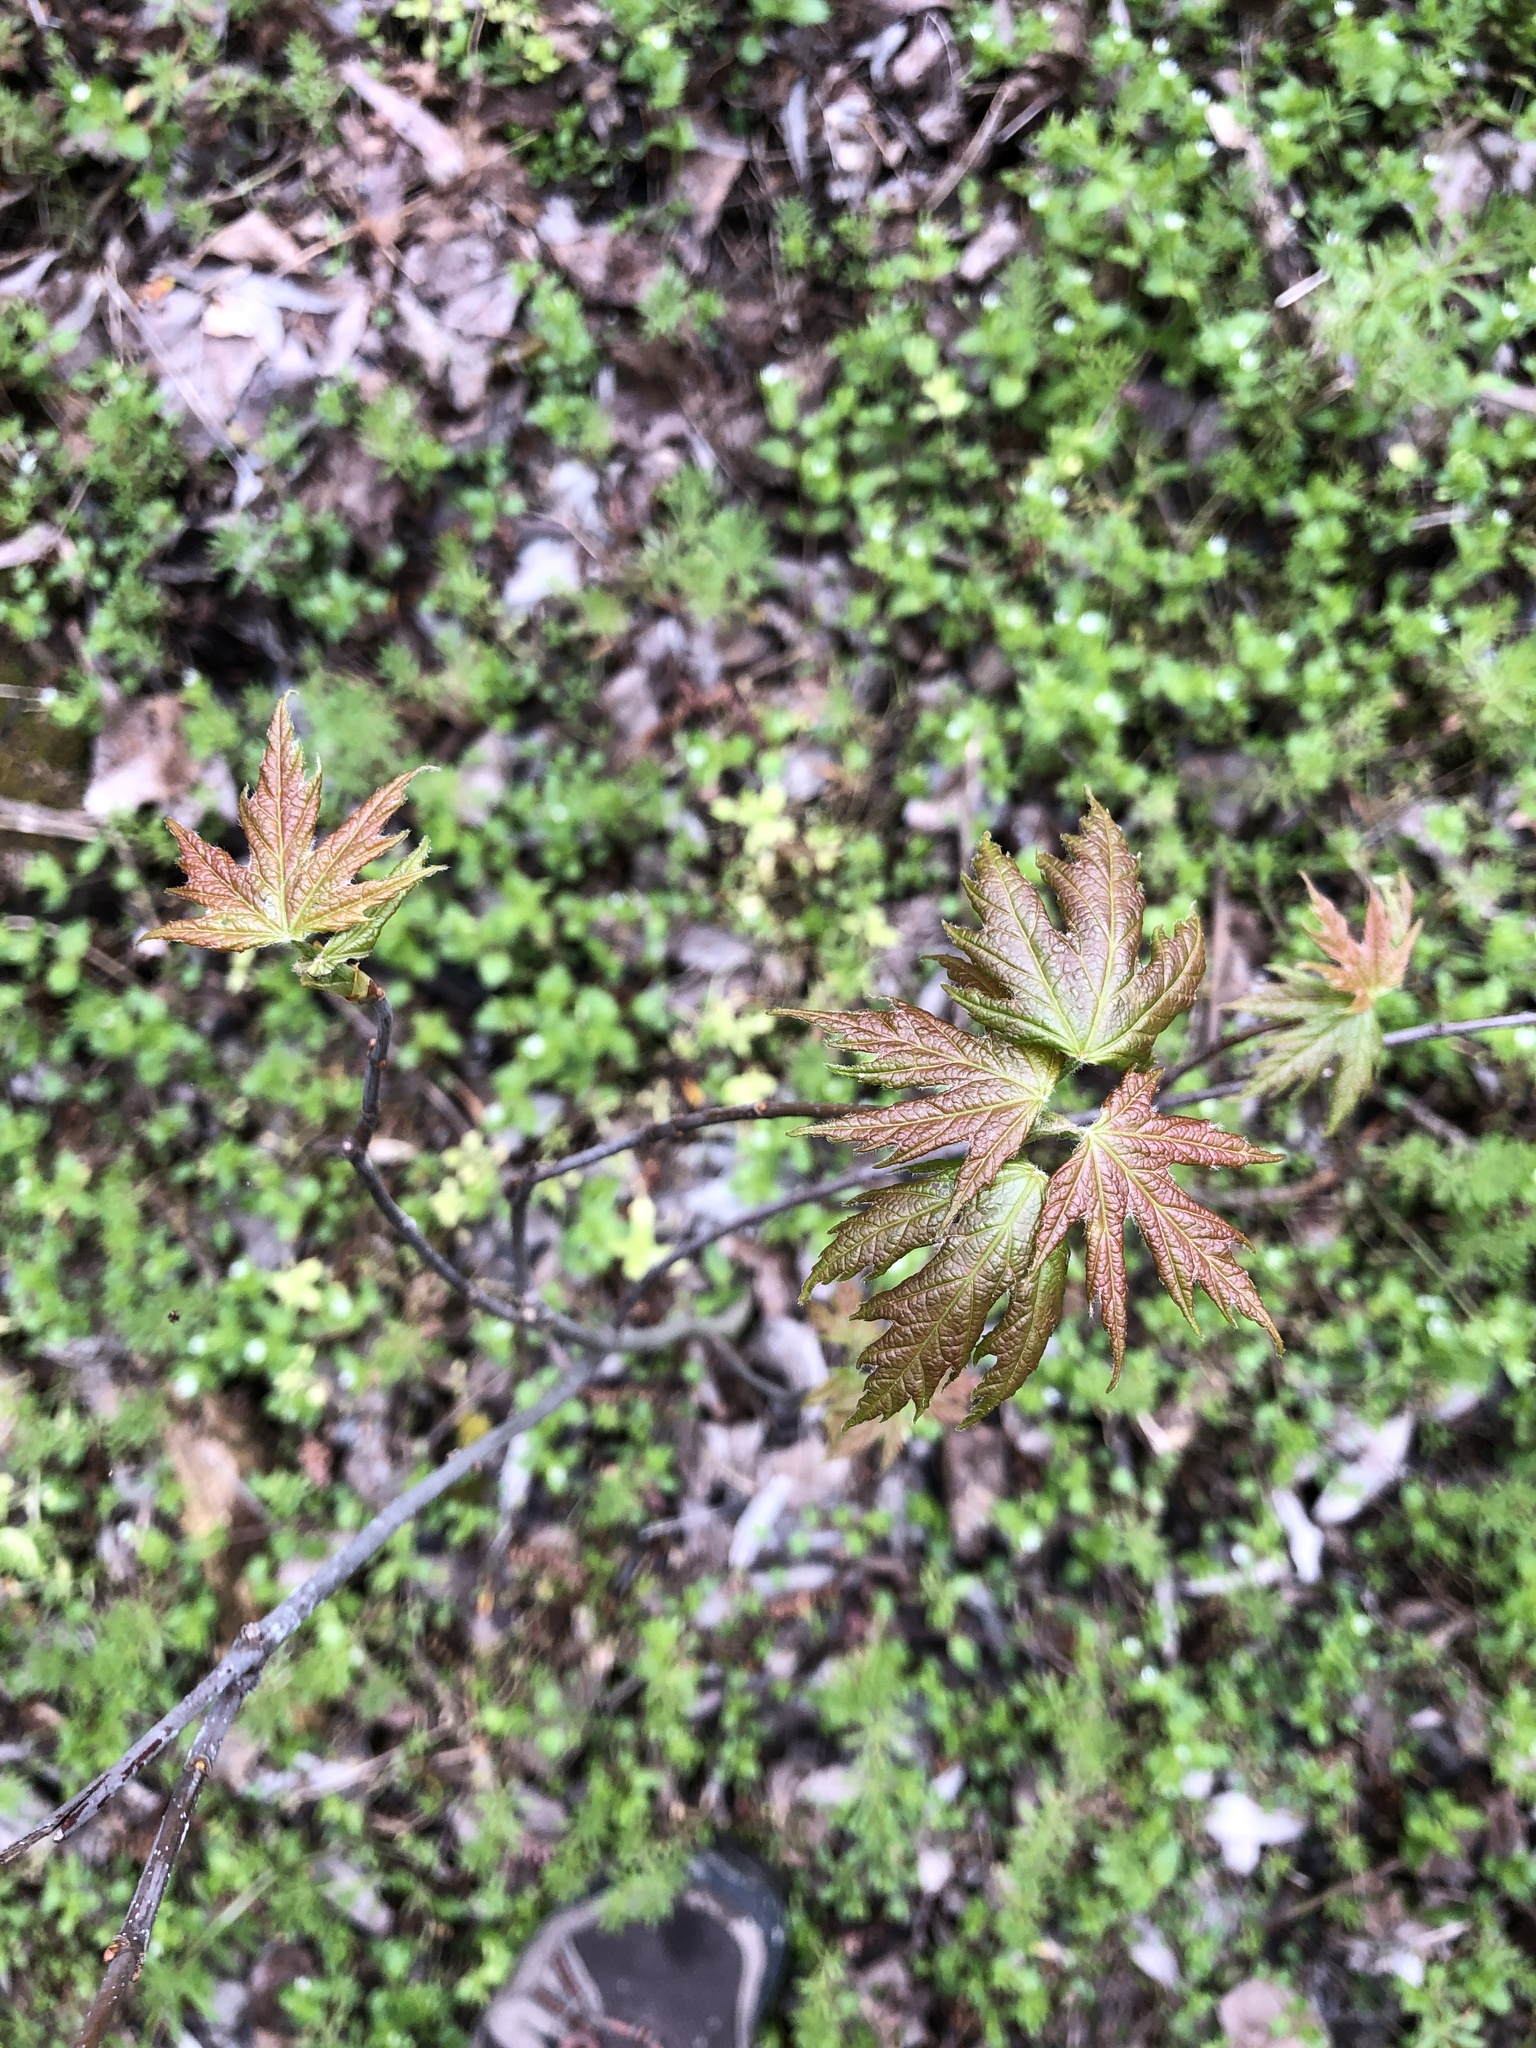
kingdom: Plantae
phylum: Tracheophyta
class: Magnoliopsida
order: Sapindales
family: Sapindaceae
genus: Acer
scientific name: Acer saccharinum
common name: Silver maple
